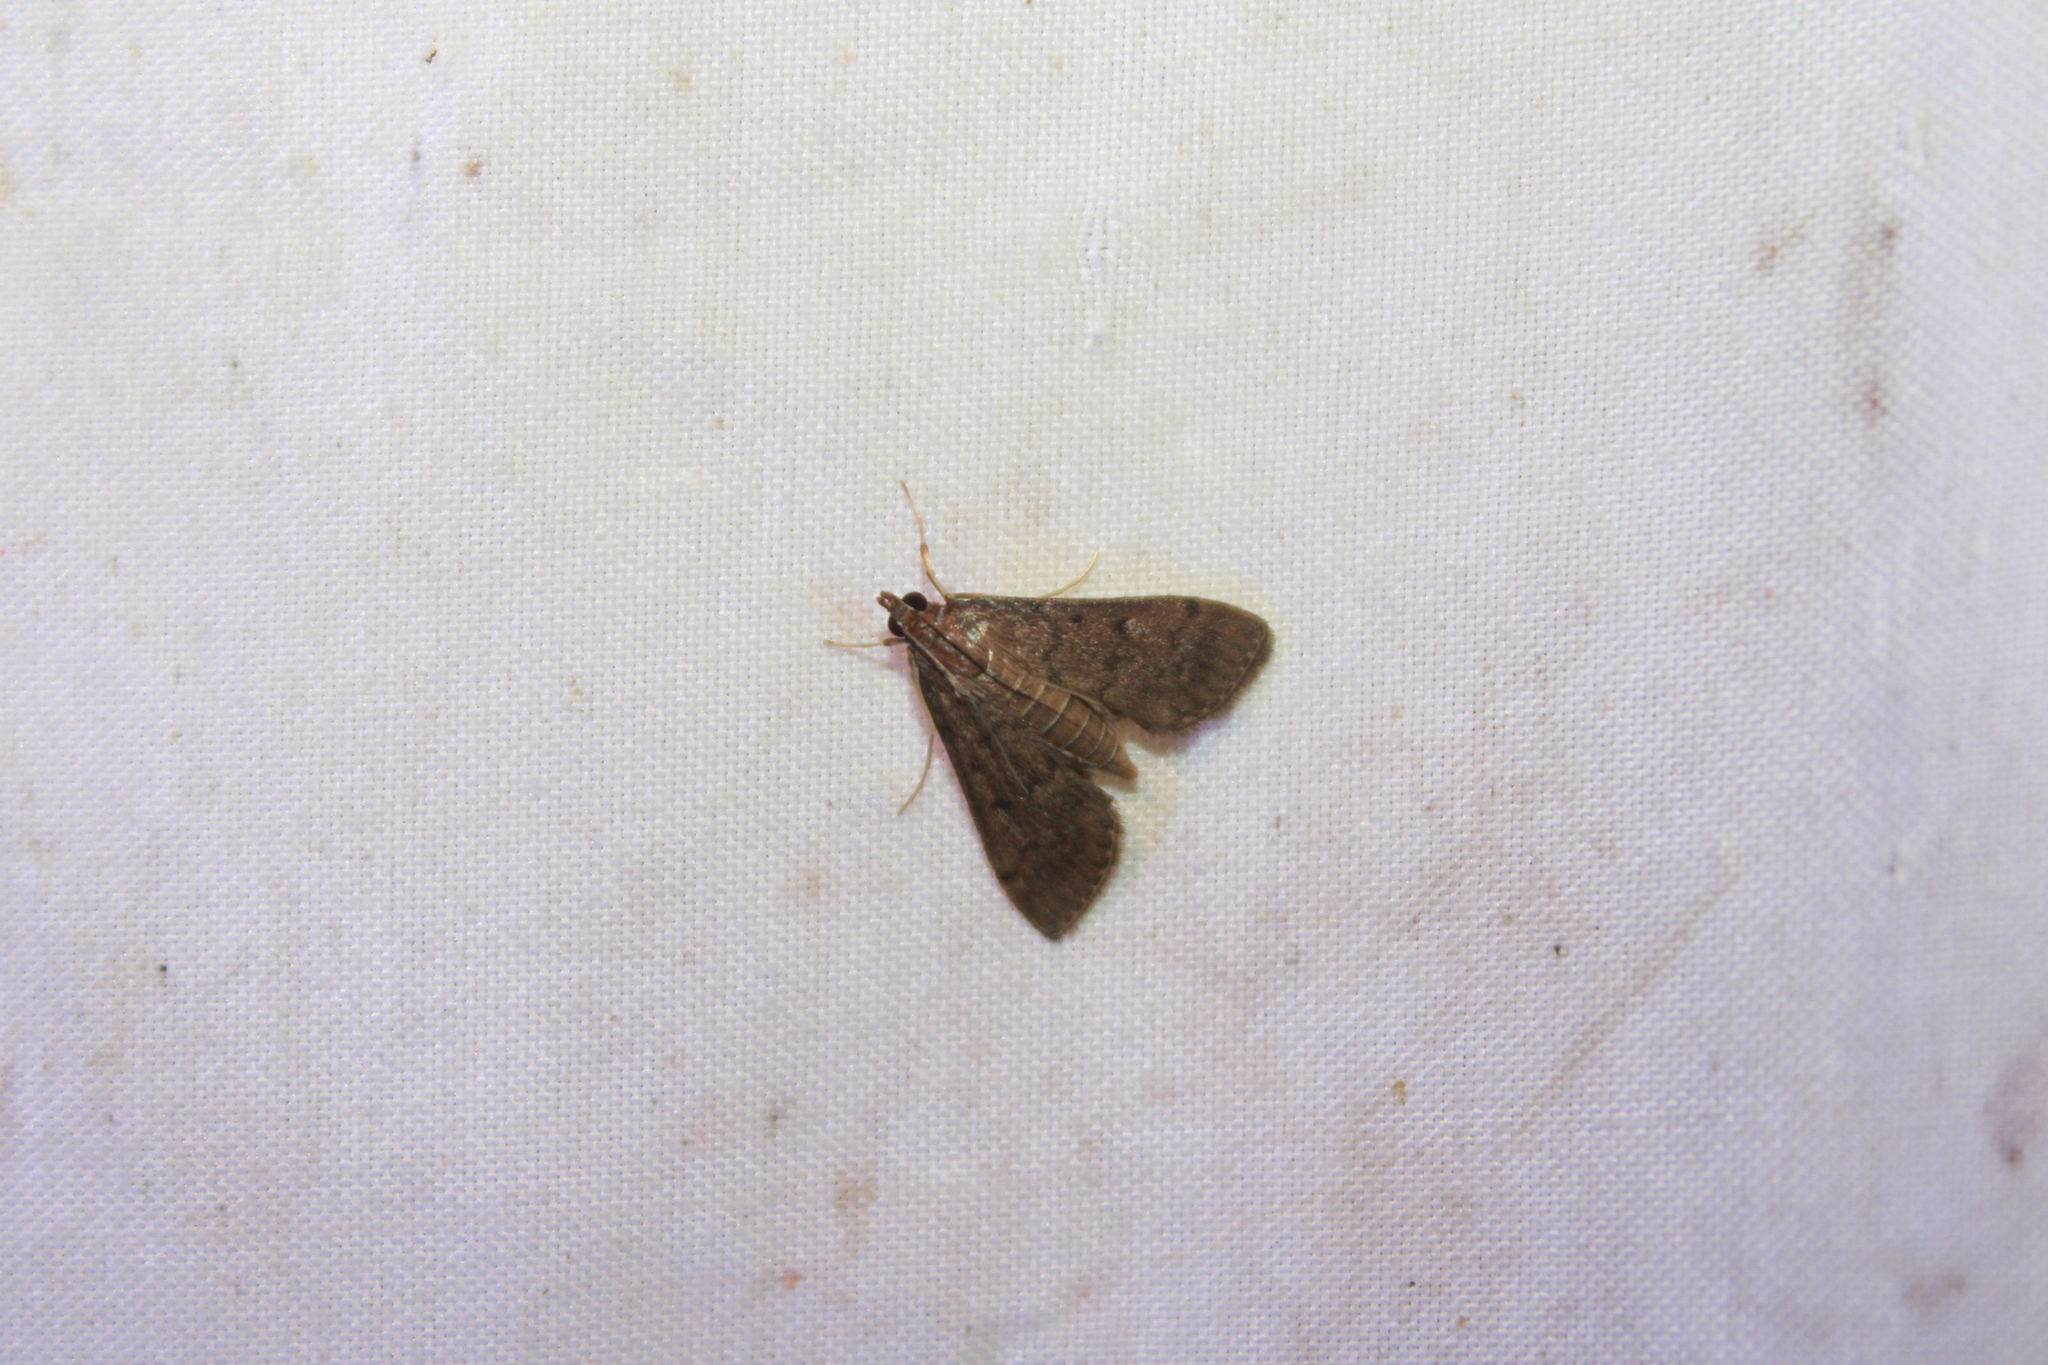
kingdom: Animalia
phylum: Arthropoda
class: Insecta
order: Lepidoptera
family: Crambidae
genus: Herpetogramma
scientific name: Herpetogramma phaeopteralis
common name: Dusky herpetogramma moth
